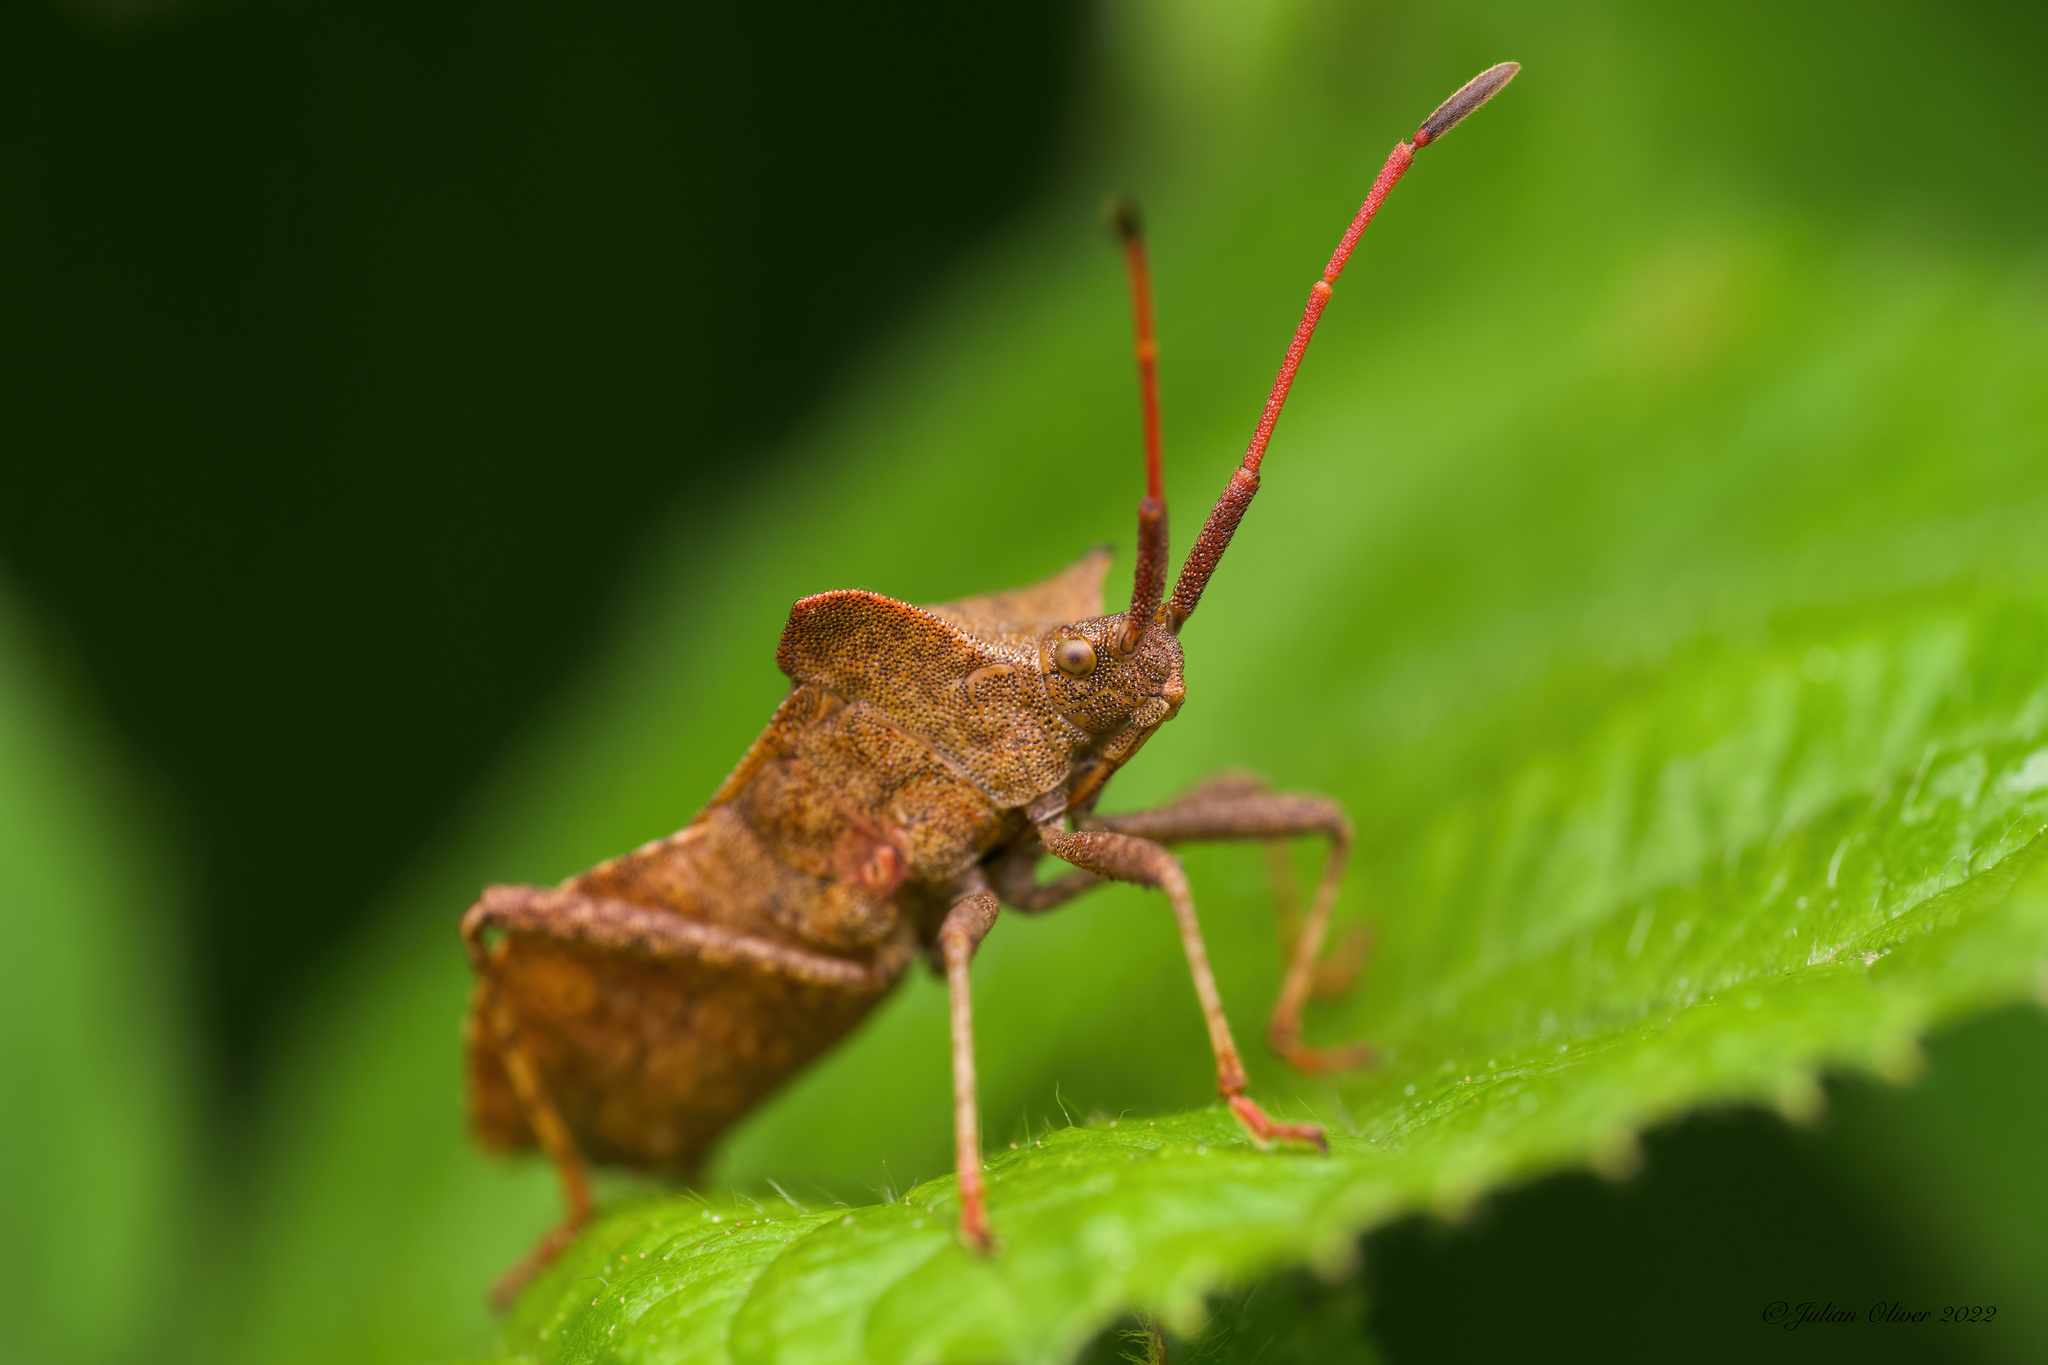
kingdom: Animalia
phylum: Arthropoda
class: Insecta
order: Hemiptera
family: Coreidae
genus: Coreus
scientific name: Coreus marginatus
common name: Dock bug
